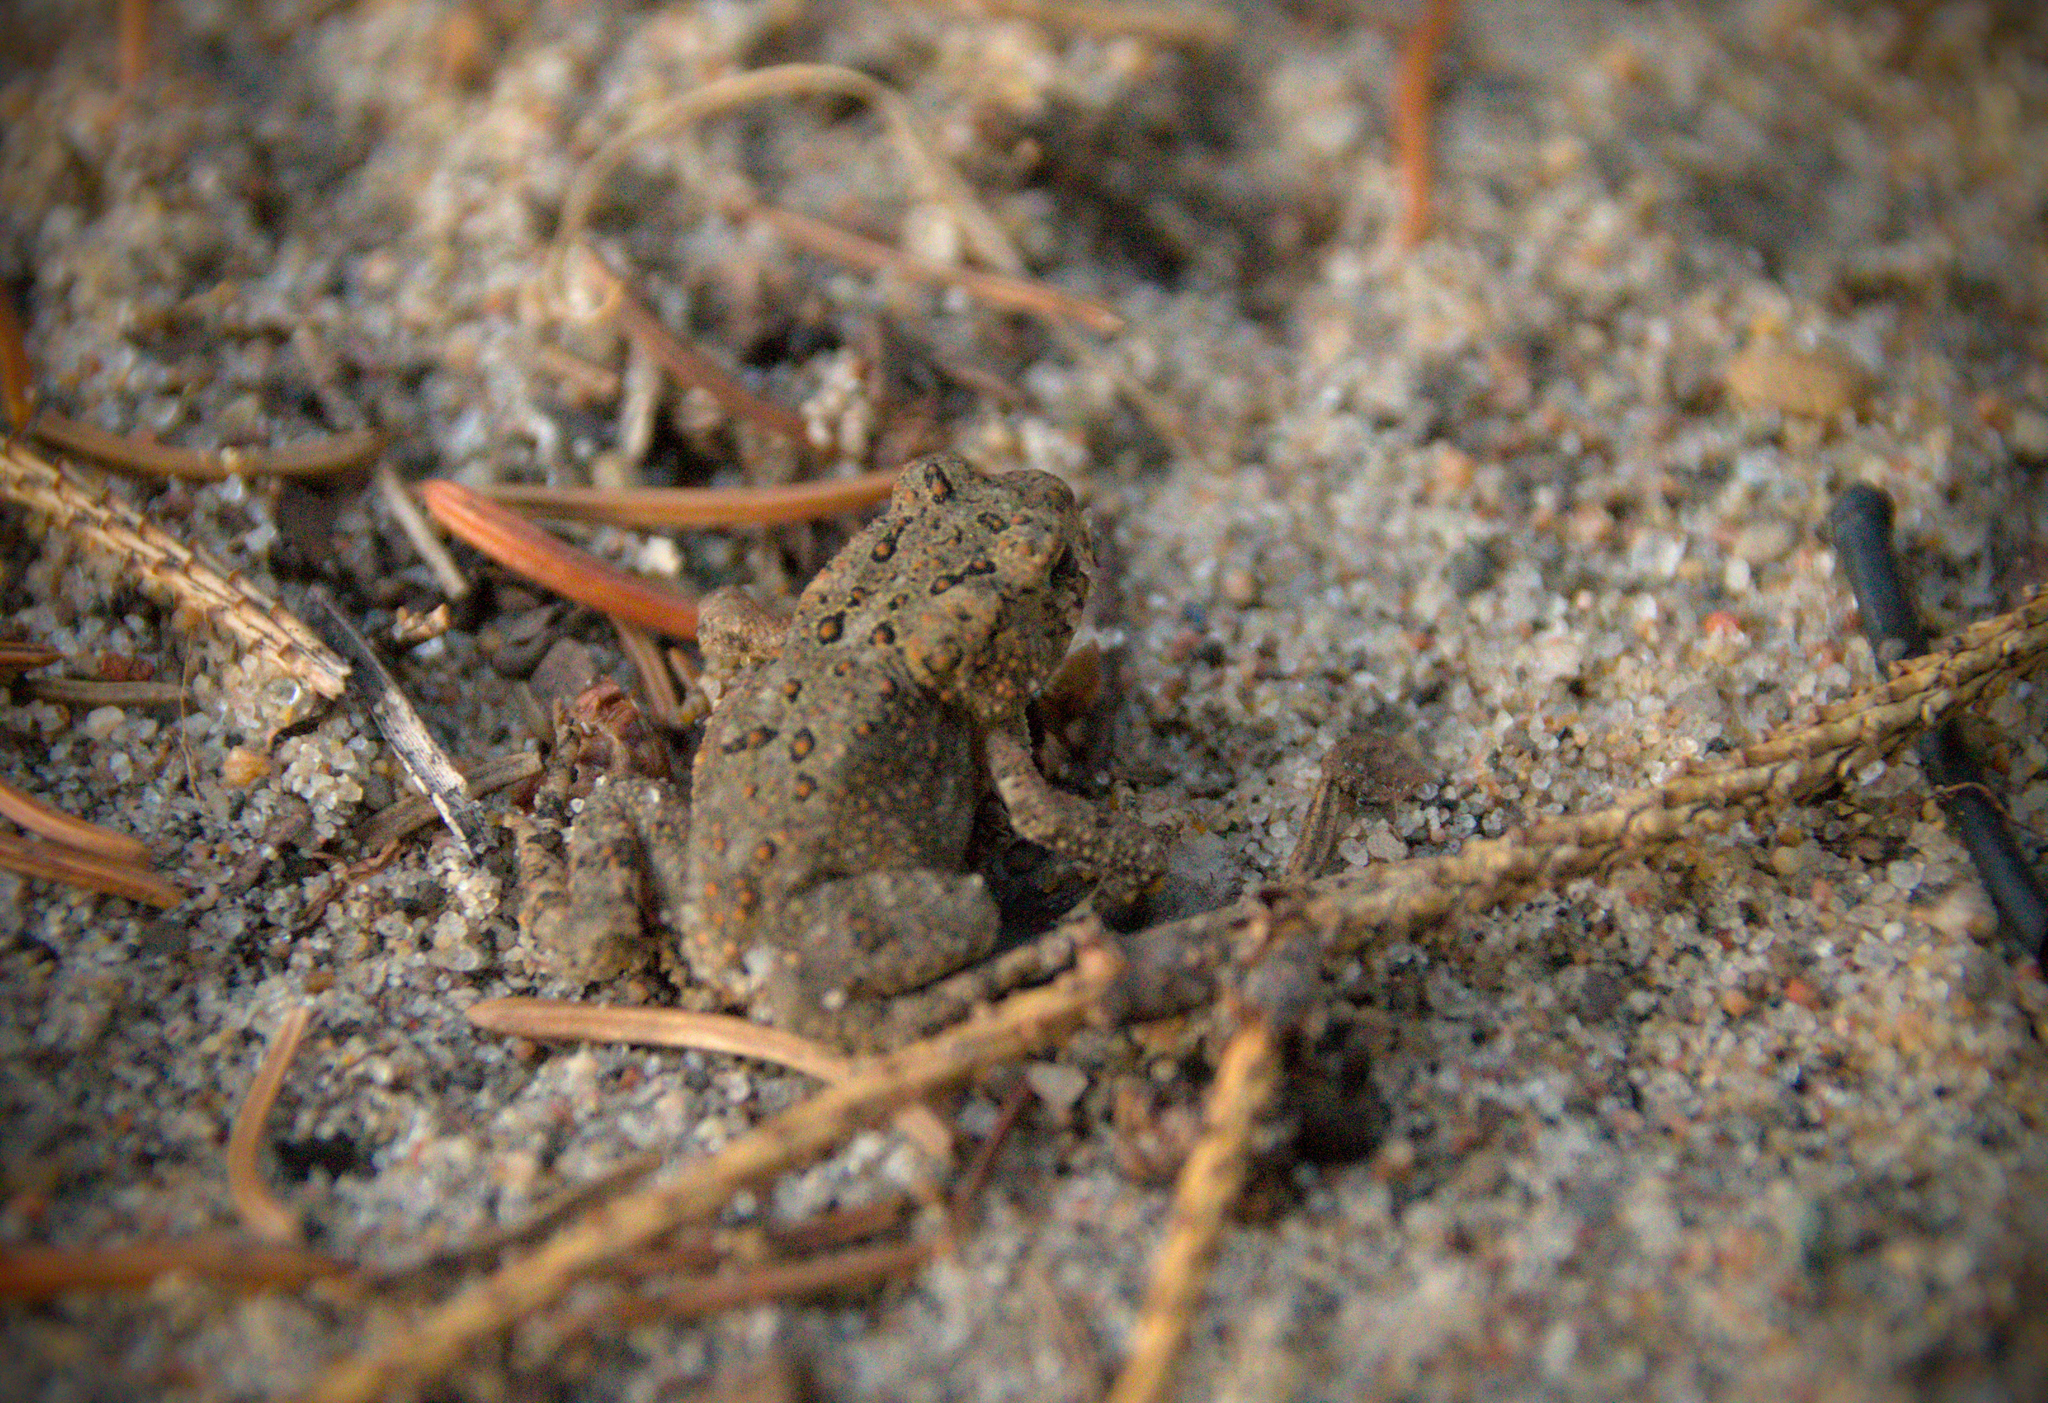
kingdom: Animalia
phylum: Chordata
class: Amphibia
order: Anura
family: Bufonidae
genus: Anaxyrus
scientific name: Anaxyrus americanus
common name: American toad
